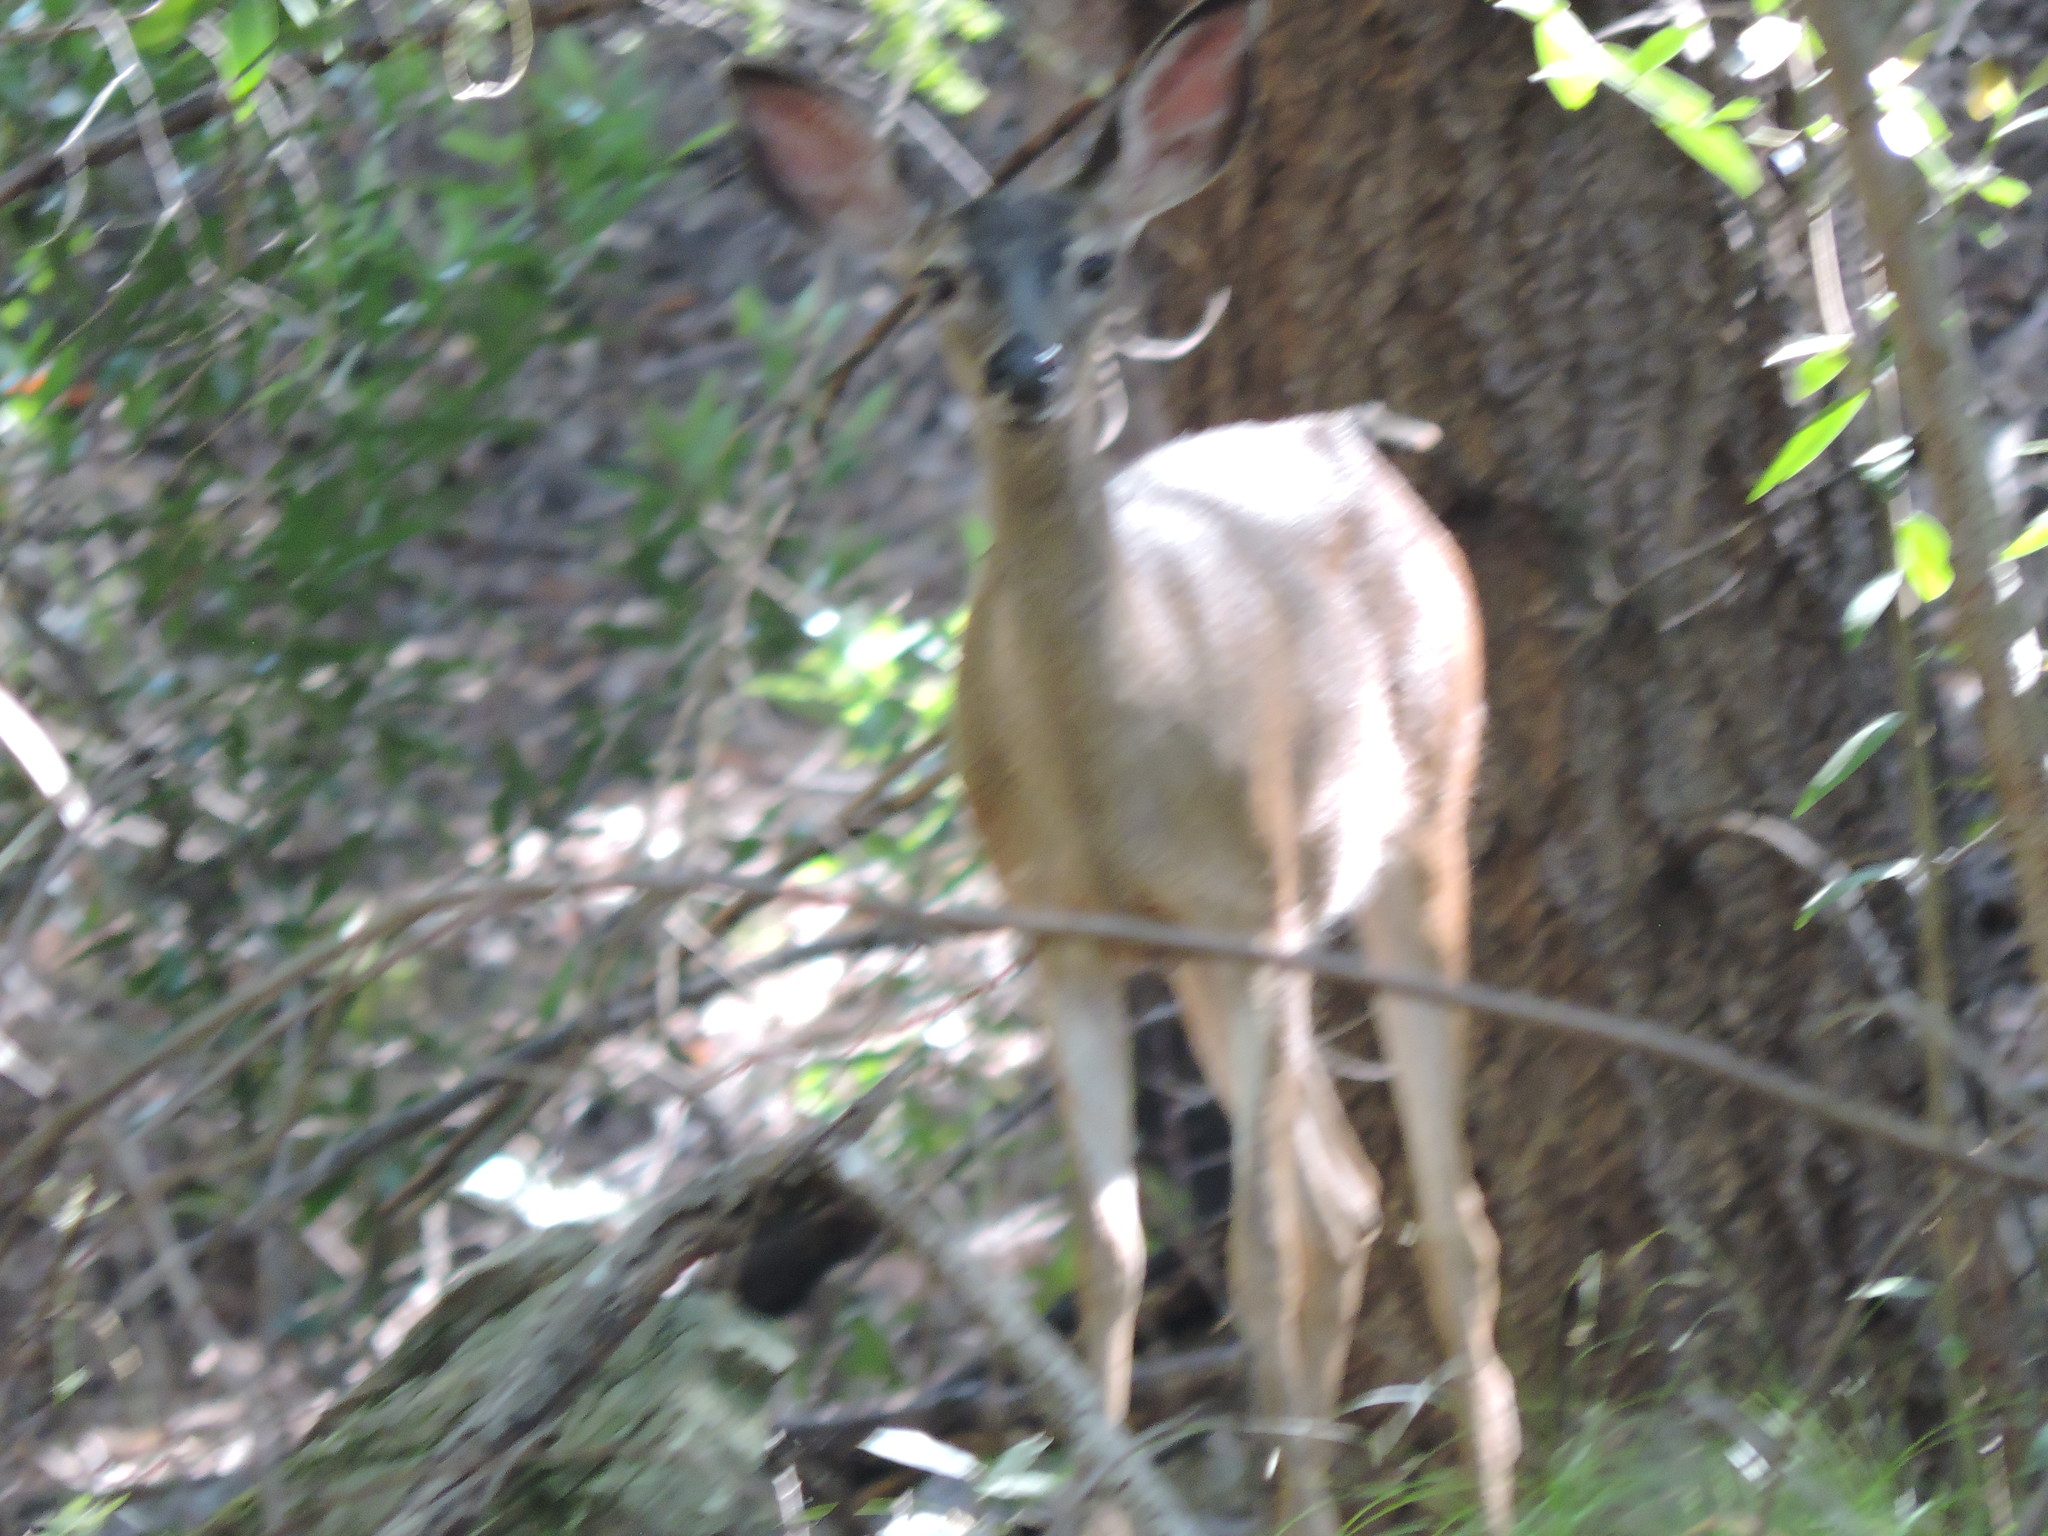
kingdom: Animalia
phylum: Chordata
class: Mammalia
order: Artiodactyla
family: Cervidae
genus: Odocoileus
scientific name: Odocoileus hemionus
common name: Mule deer
